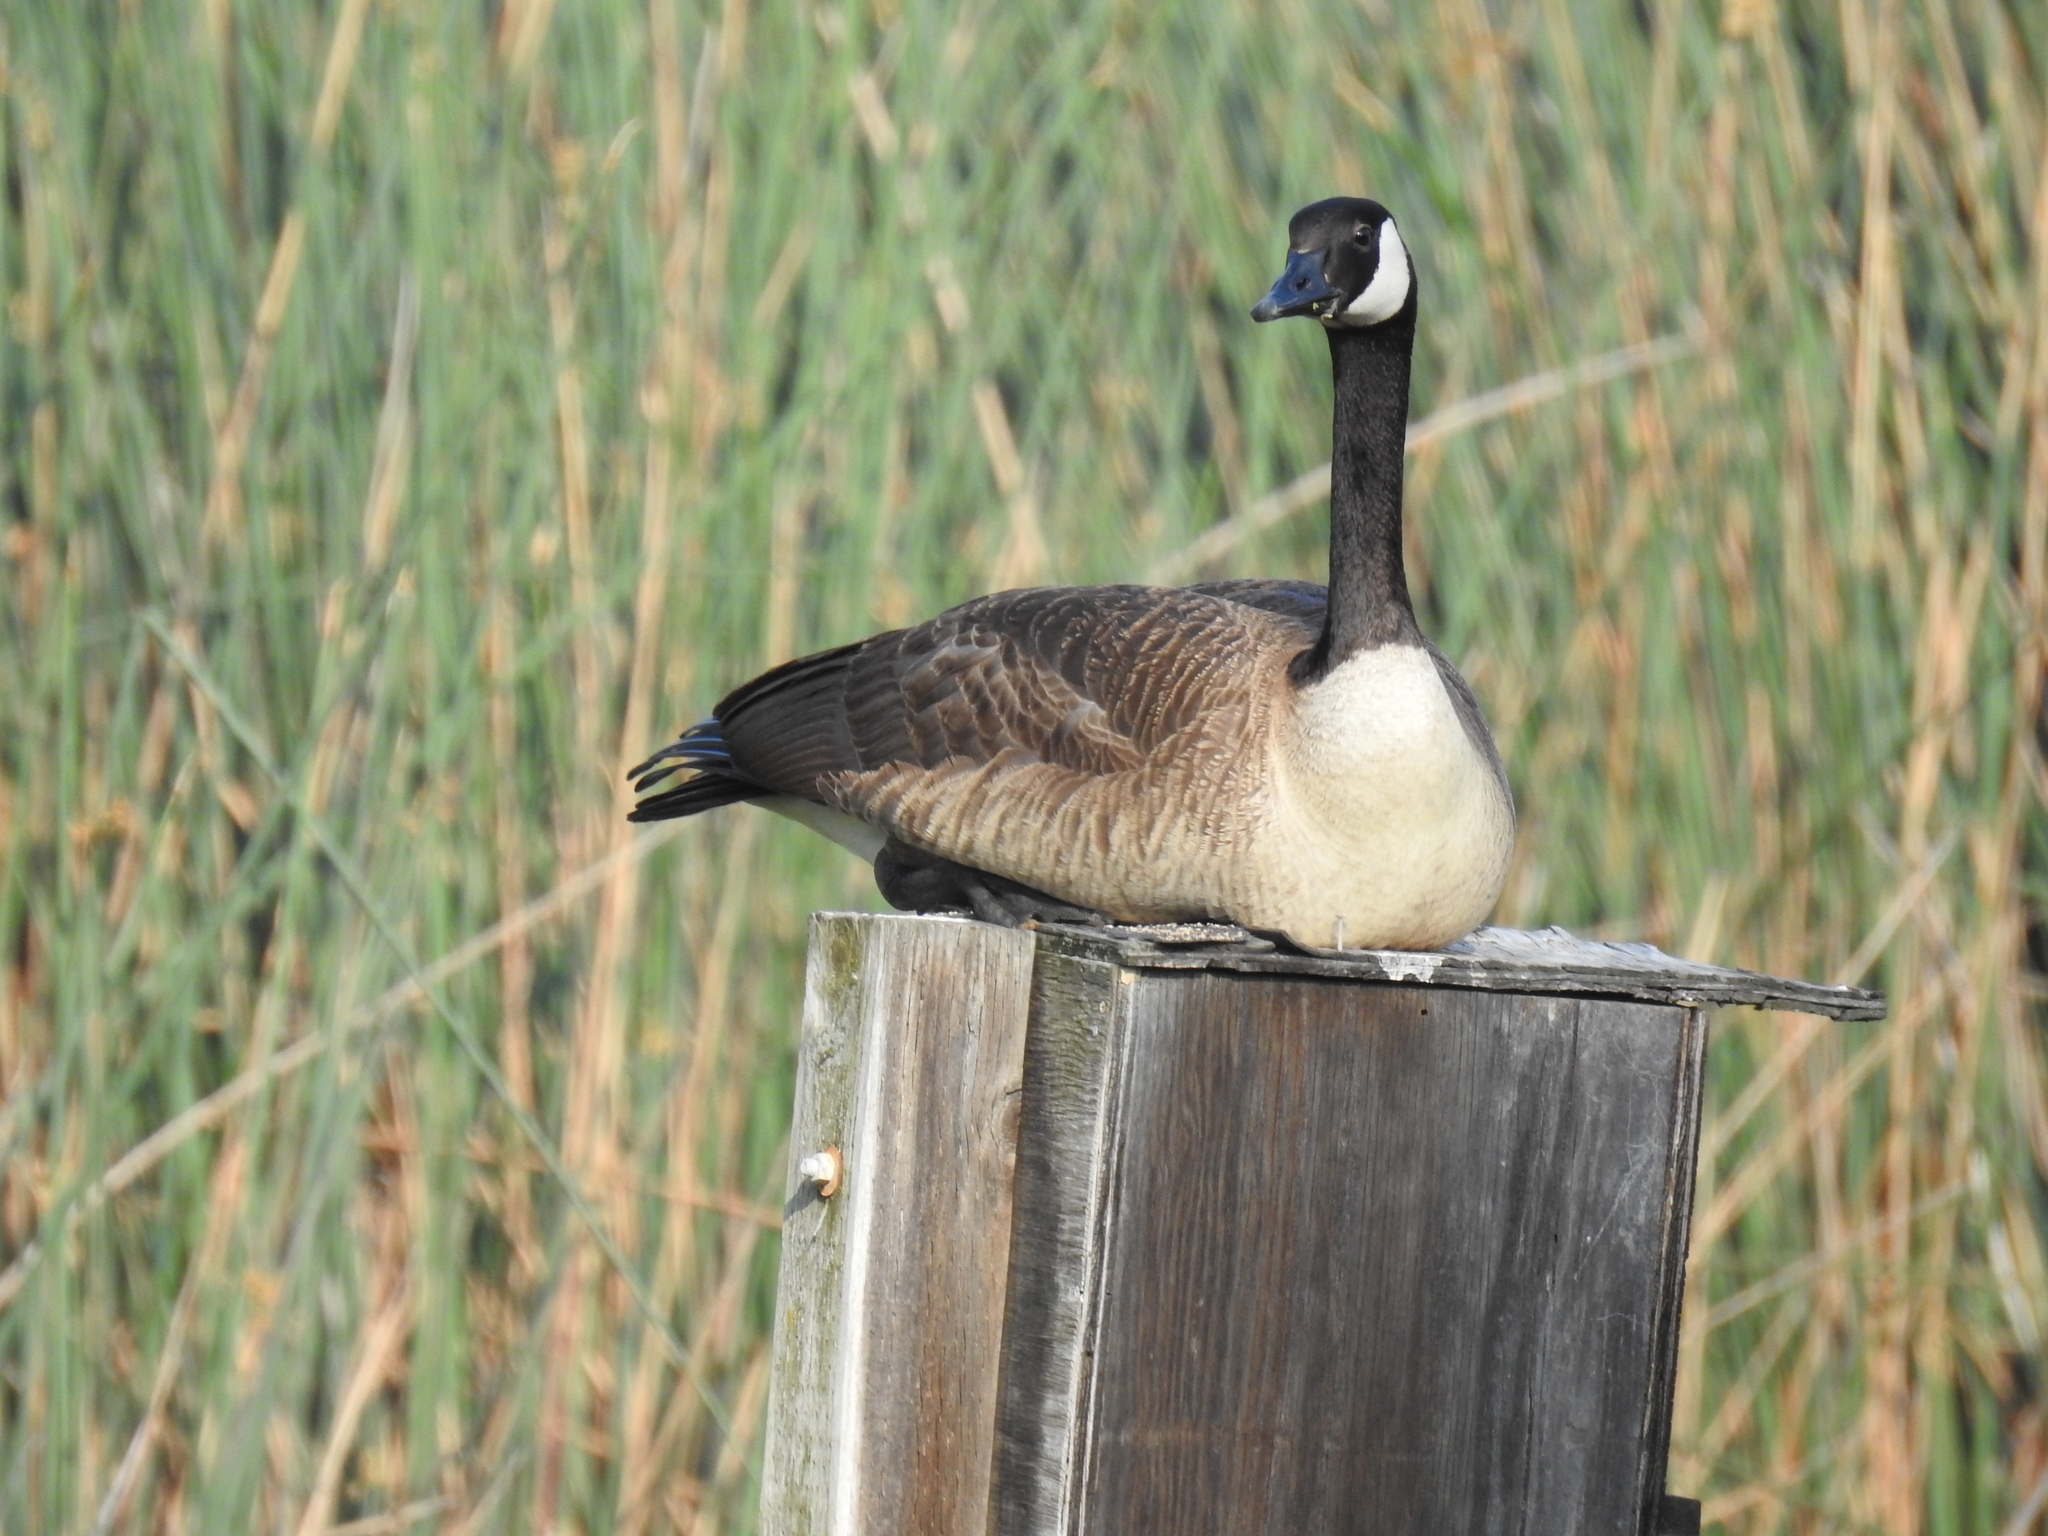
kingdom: Animalia
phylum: Chordata
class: Aves
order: Anseriformes
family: Anatidae
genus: Branta
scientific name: Branta canadensis
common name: Canada goose
